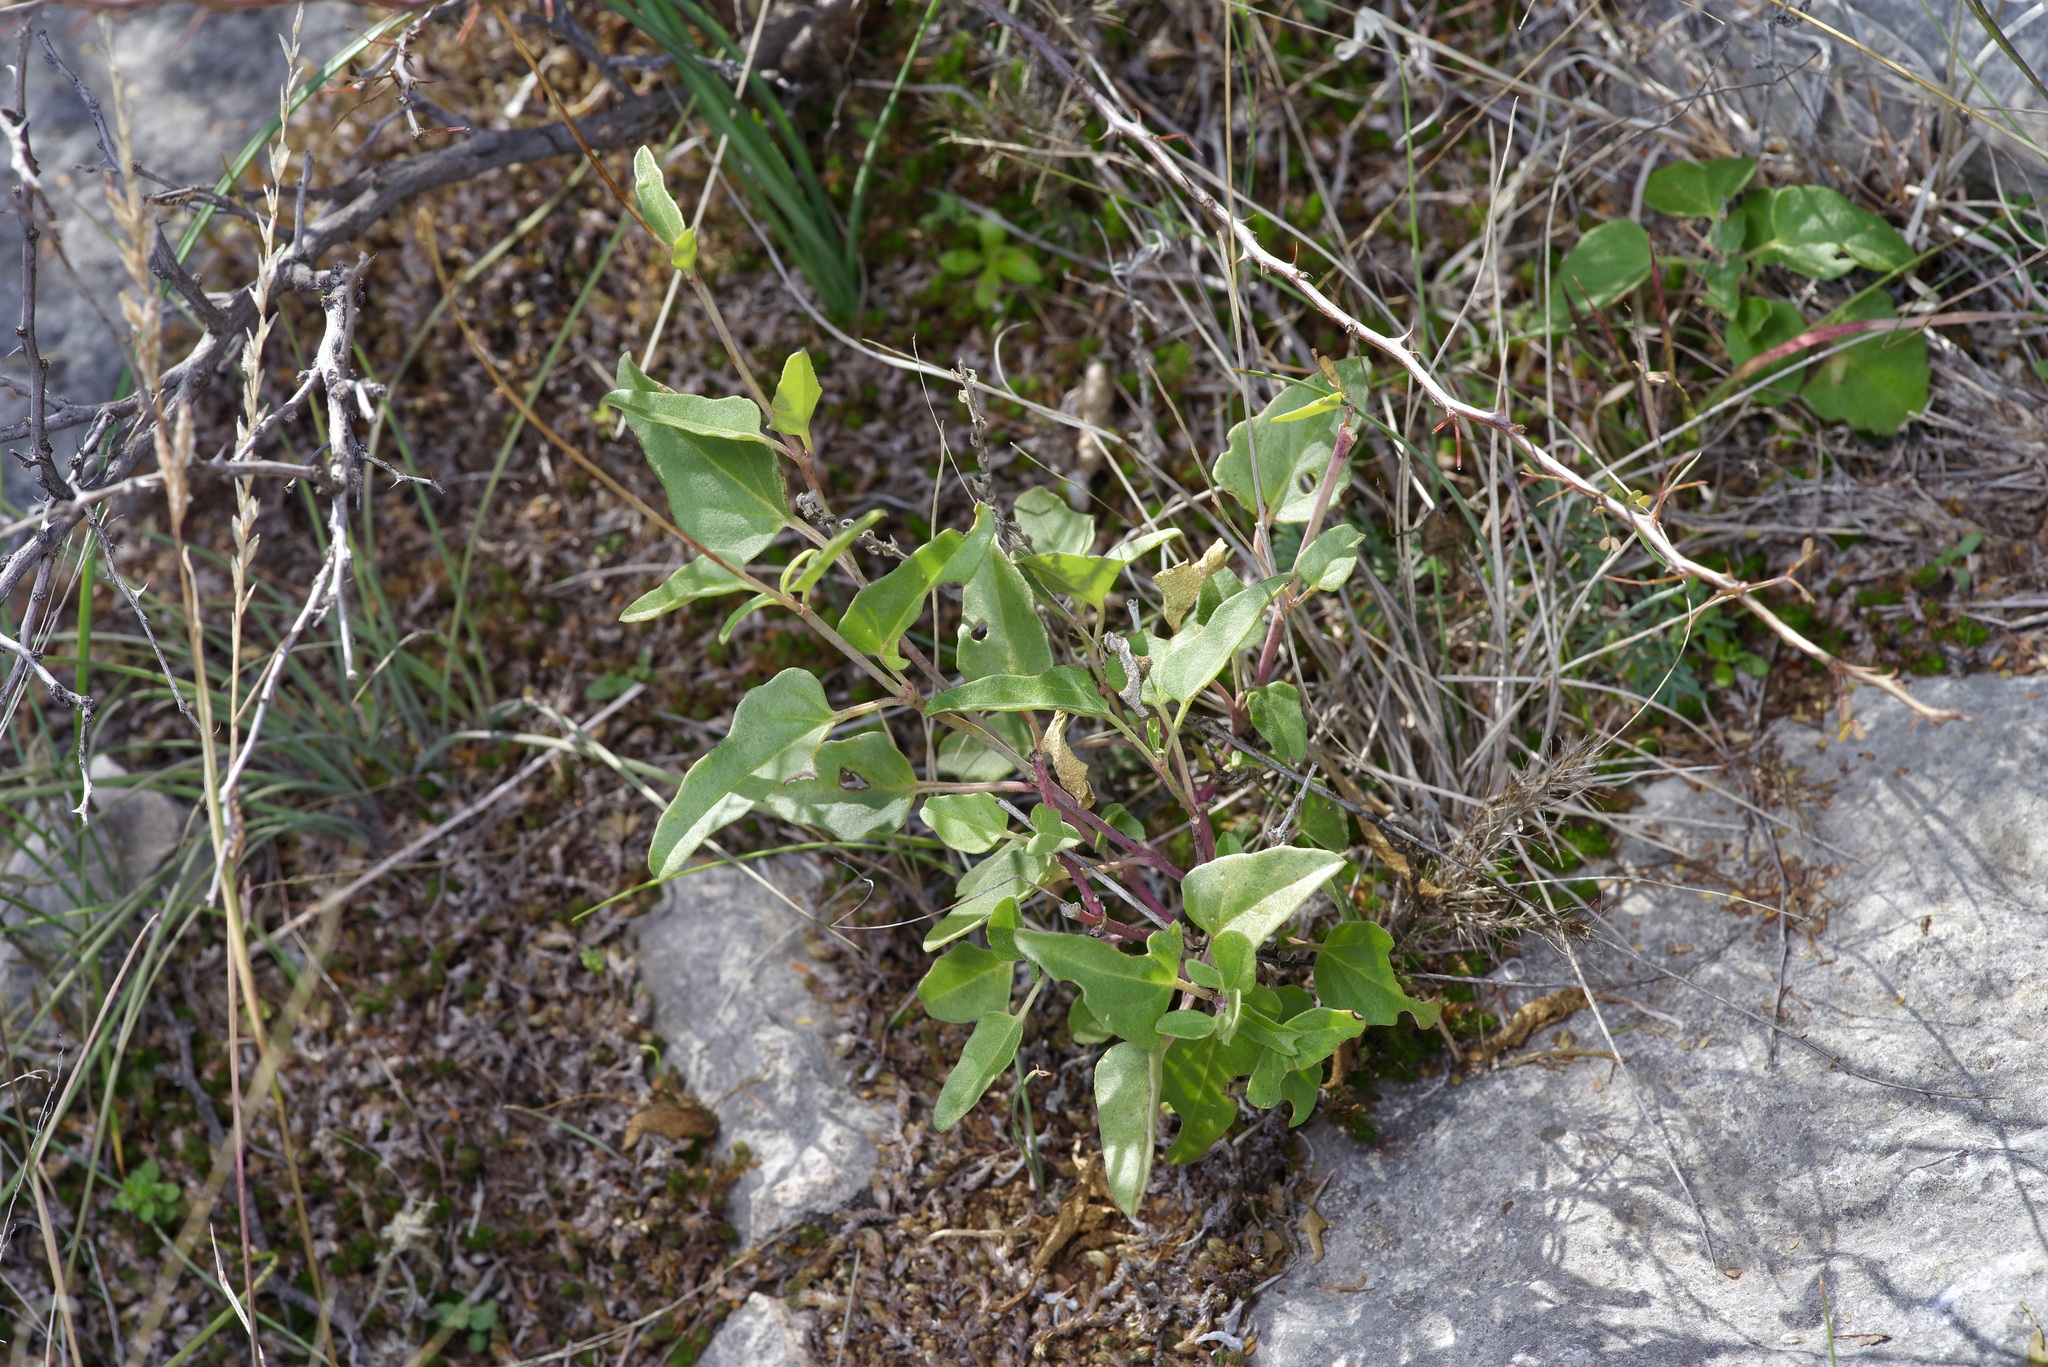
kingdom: Plantae
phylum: Tracheophyta
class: Magnoliopsida
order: Caryophyllales
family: Nyctaginaceae
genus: Cyphomeris
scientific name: Cyphomeris gypsophiloides
